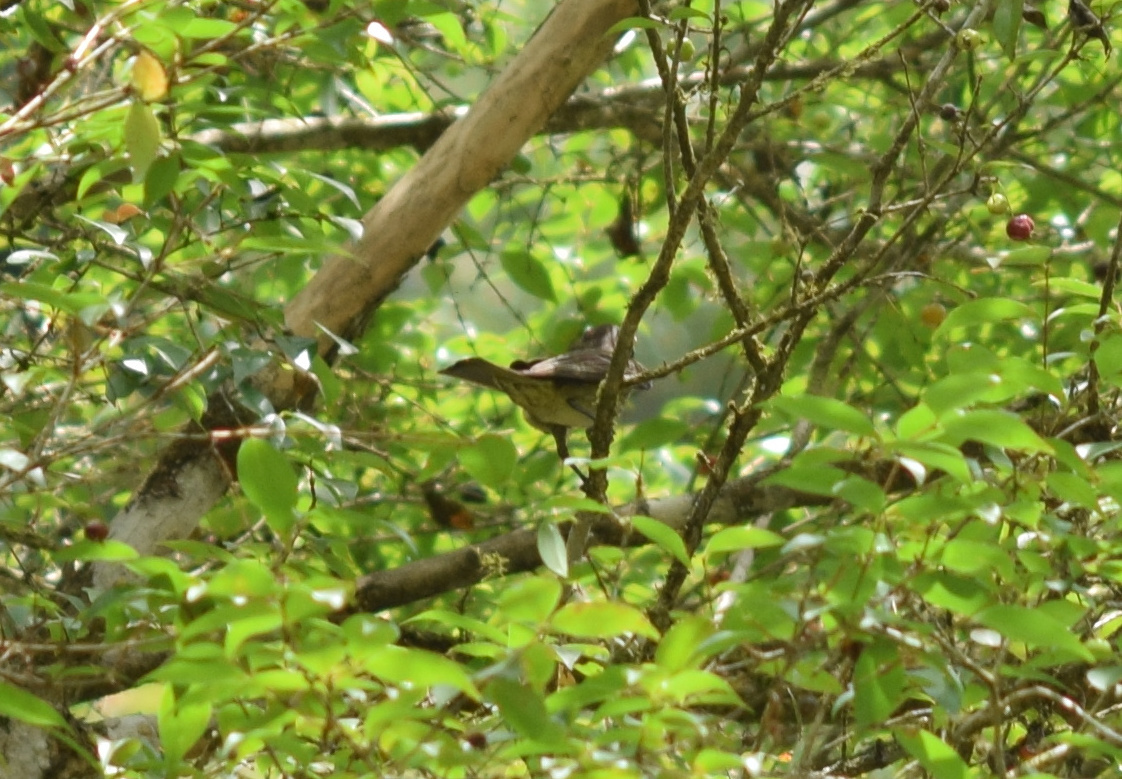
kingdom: Animalia
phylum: Chordata
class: Aves
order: Passeriformes
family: Tyrannidae
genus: Legatus
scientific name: Legatus leucophaius
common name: Piratic flycatcher
